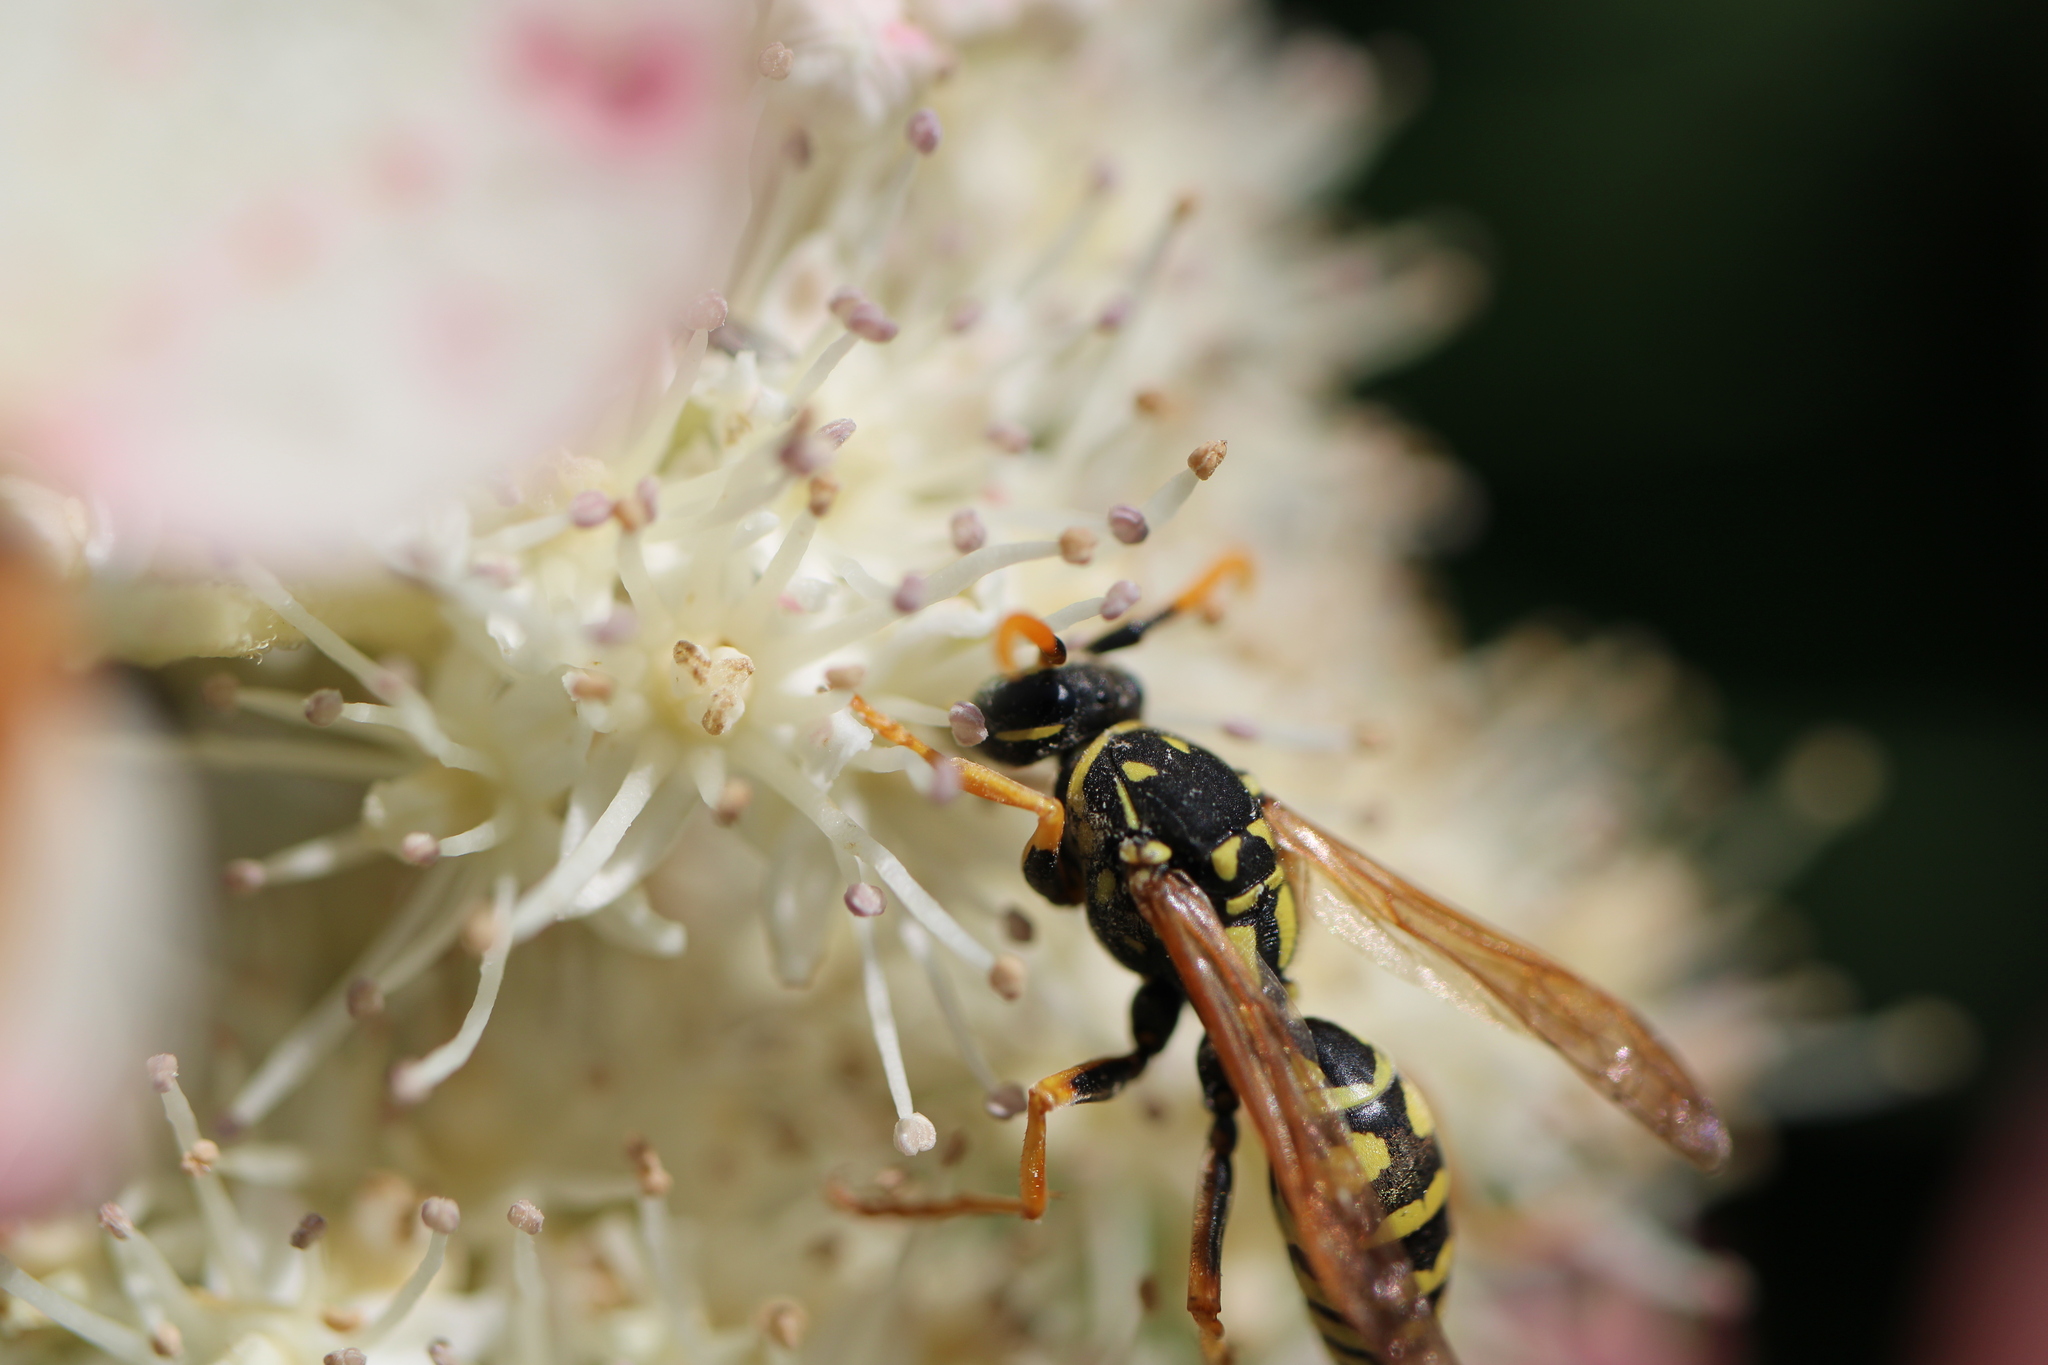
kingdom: Animalia
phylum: Arthropoda
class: Insecta
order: Hymenoptera
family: Eumenidae
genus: Polistes
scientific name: Polistes dominula
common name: Paper wasp
